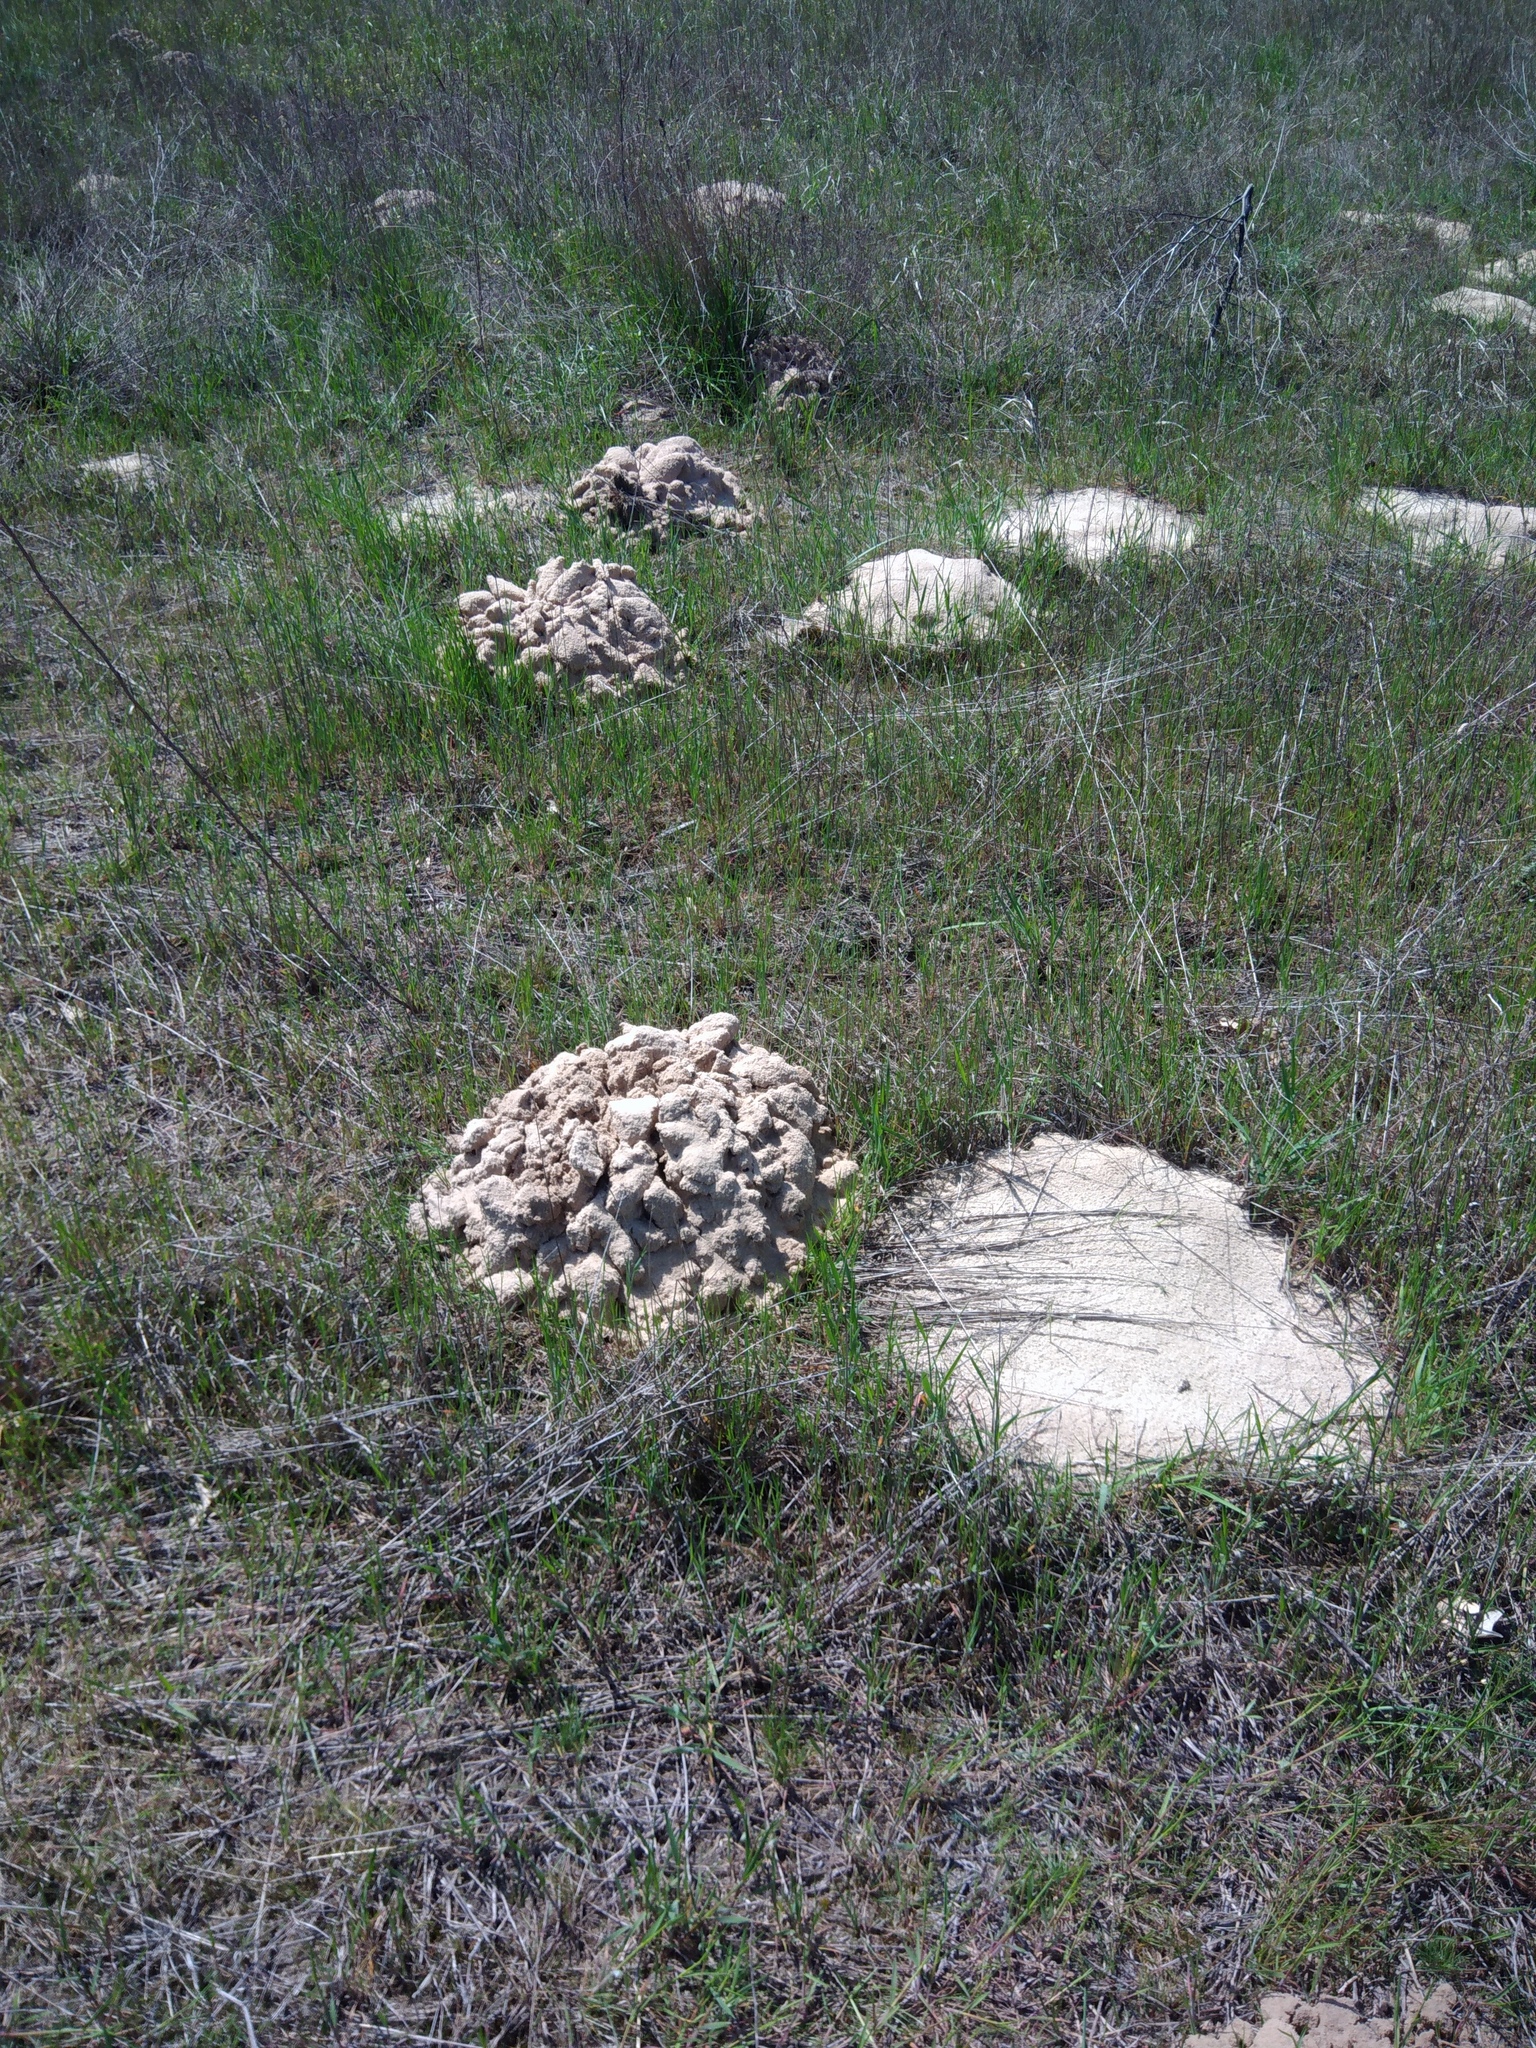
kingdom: Animalia
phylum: Chordata
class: Mammalia
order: Rodentia
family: Spalacidae
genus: Spalax
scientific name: Spalax arenarius
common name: Sandy blind mole rat
